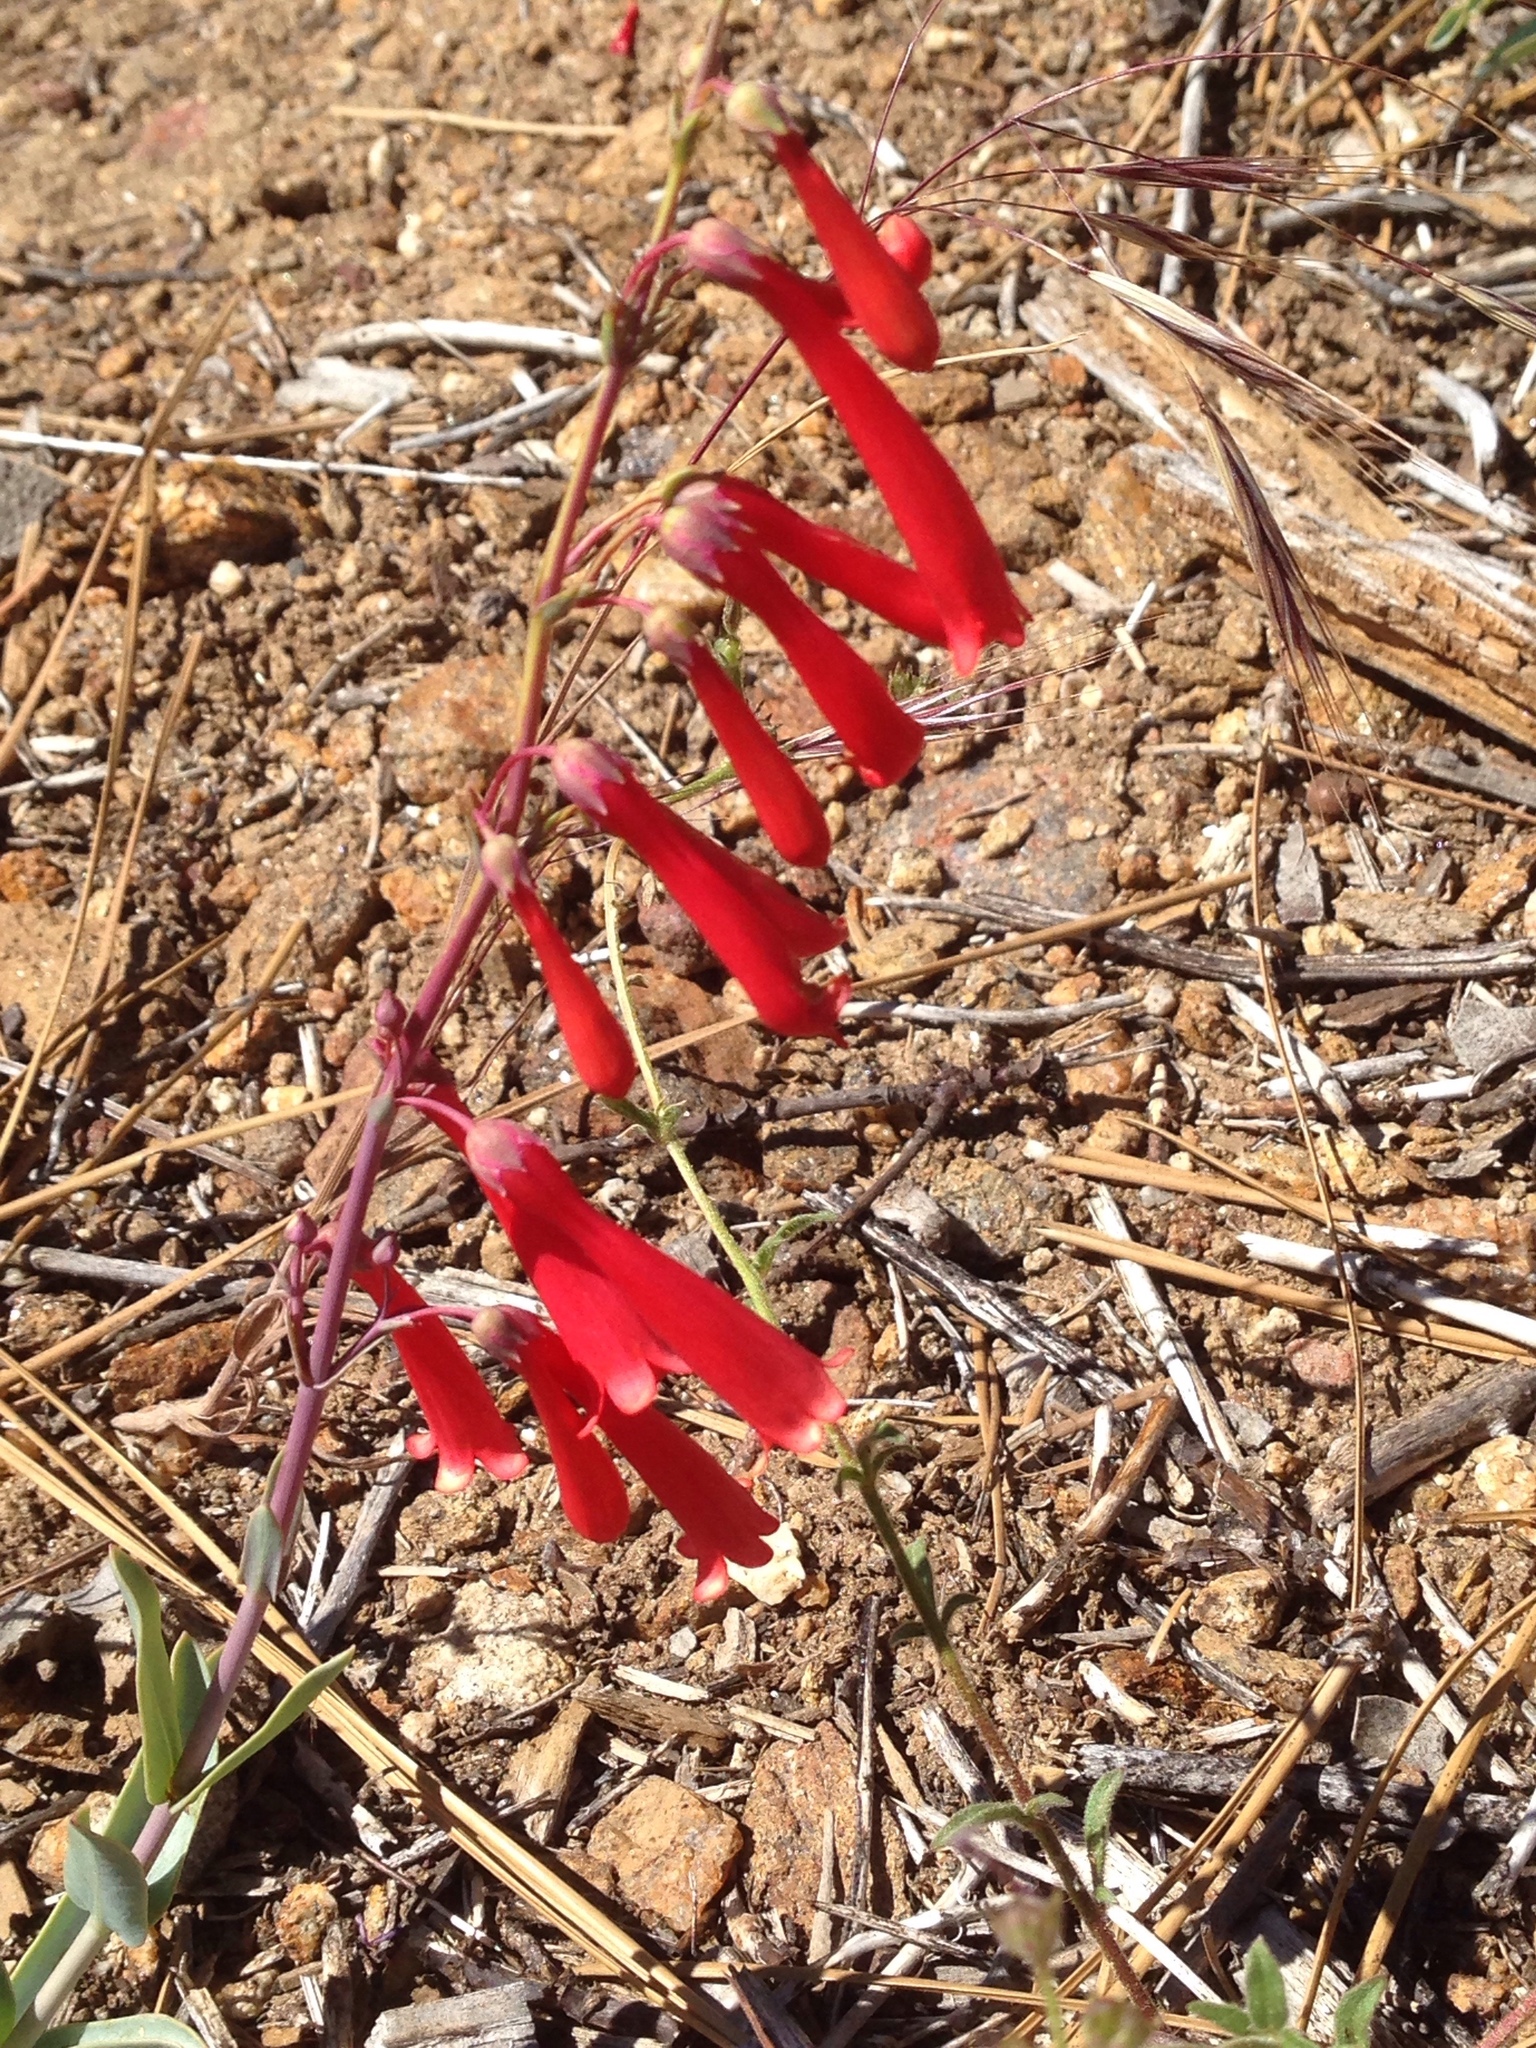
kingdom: Plantae
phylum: Tracheophyta
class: Magnoliopsida
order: Lamiales
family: Plantaginaceae
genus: Penstemon
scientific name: Penstemon centranthifolius
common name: Scarlet bugler
